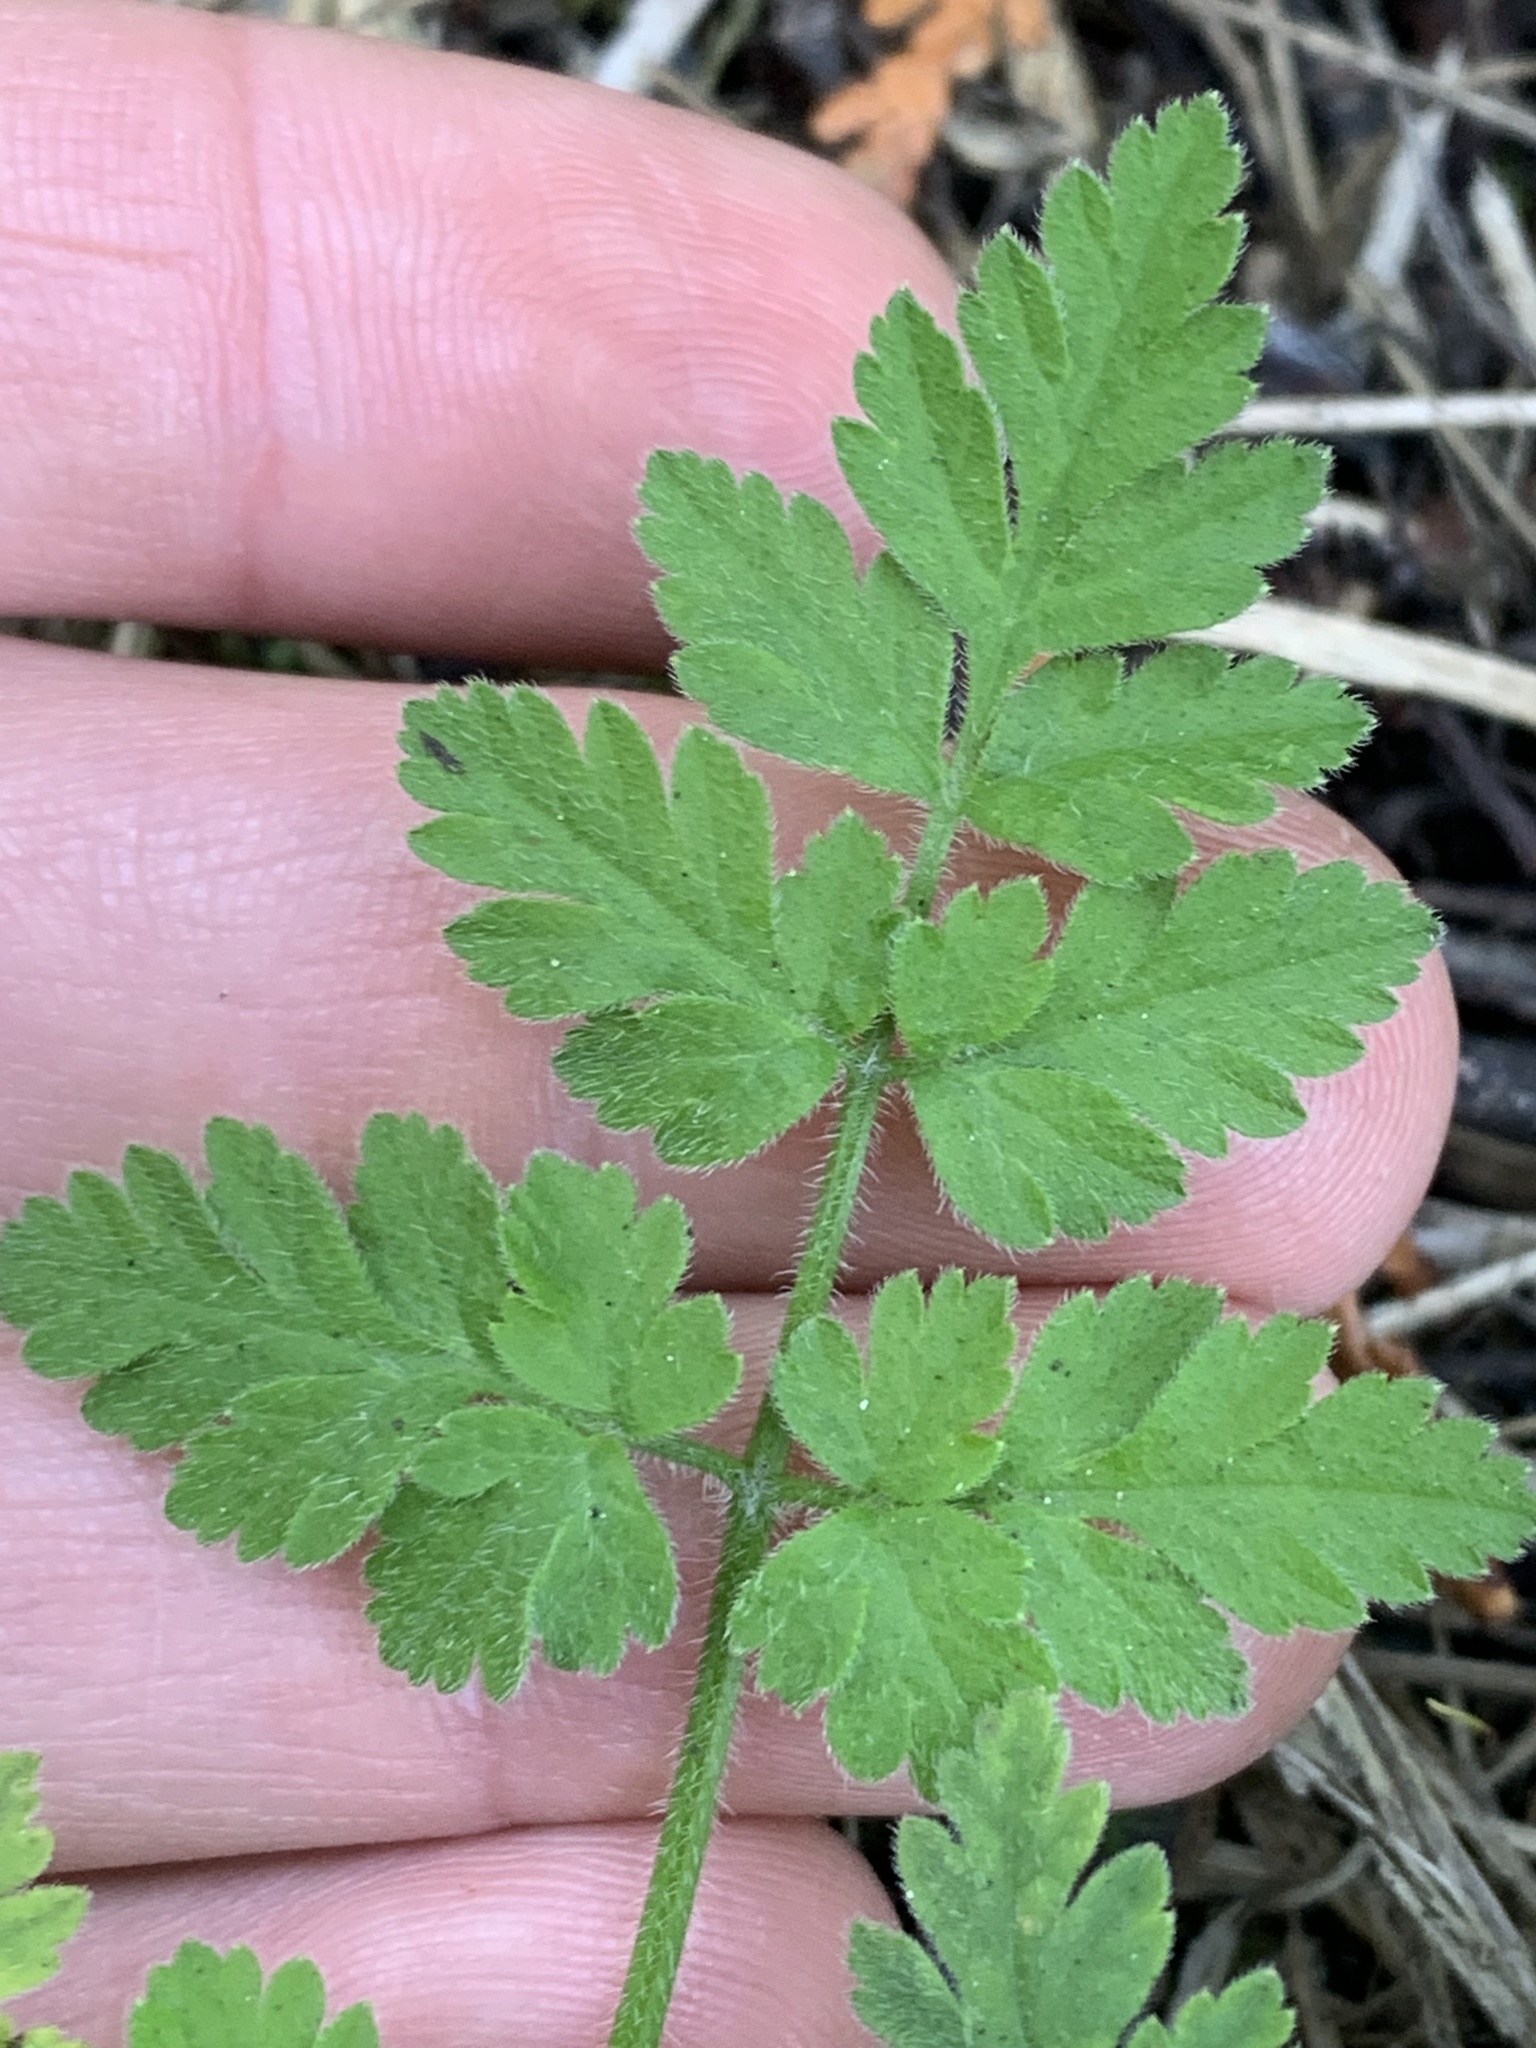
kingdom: Plantae
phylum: Tracheophyta
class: Magnoliopsida
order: Apiales
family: Apiaceae
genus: Chaerophyllum
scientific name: Chaerophyllum temulum
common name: Rough chervil
